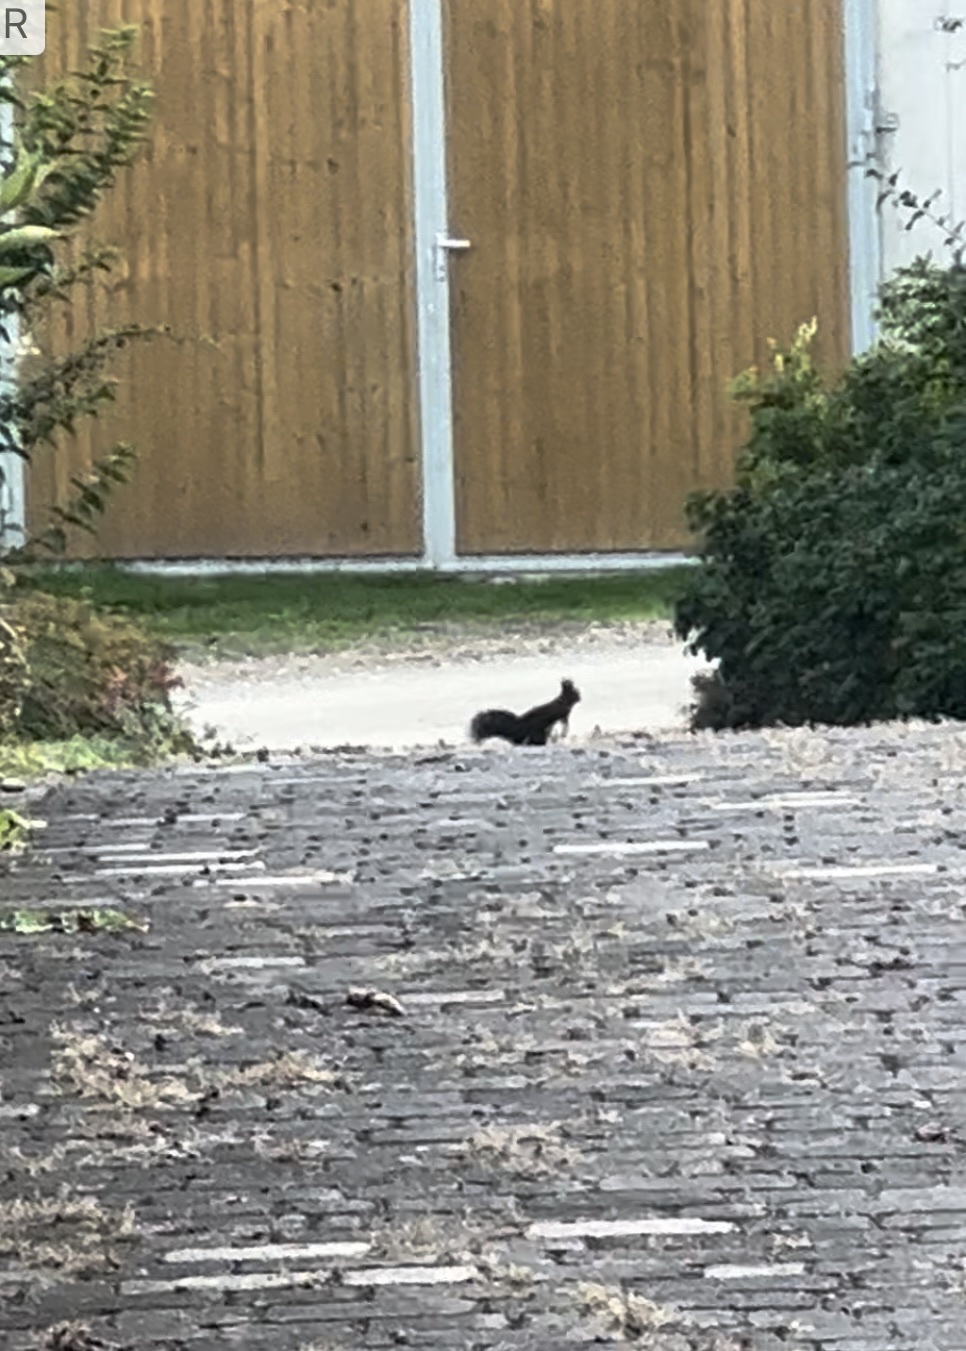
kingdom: Animalia
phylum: Chordata
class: Mammalia
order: Rodentia
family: Sciuridae
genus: Sciurus
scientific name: Sciurus vulgaris
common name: Eurasian red squirrel
